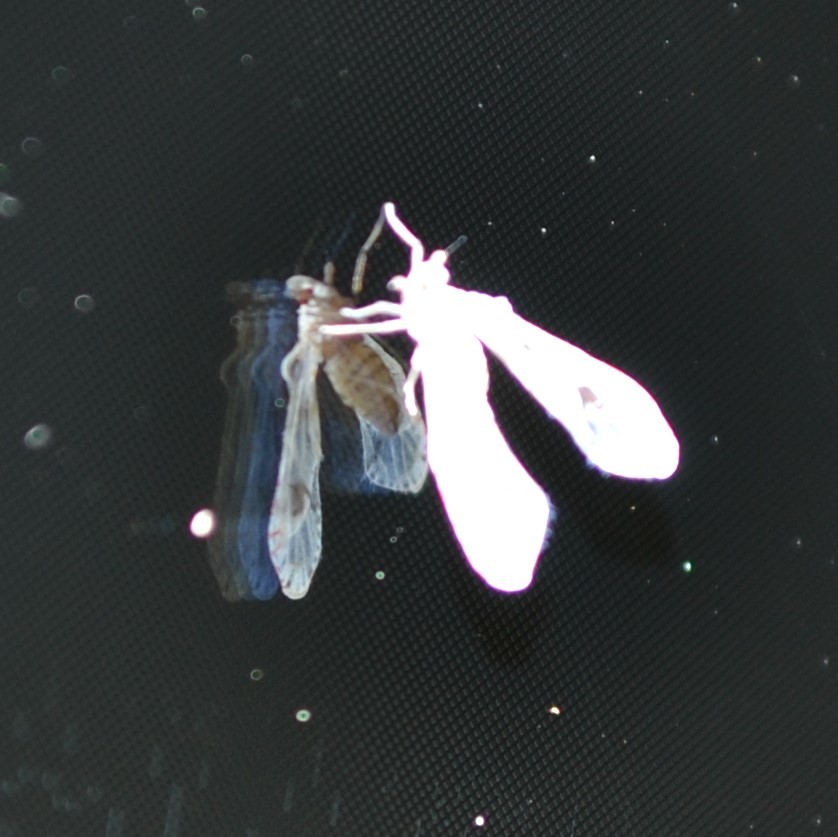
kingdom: Animalia
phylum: Arthropoda
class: Insecta
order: Hemiptera
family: Derbidae
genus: Anotia
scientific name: Anotia robertsonii
